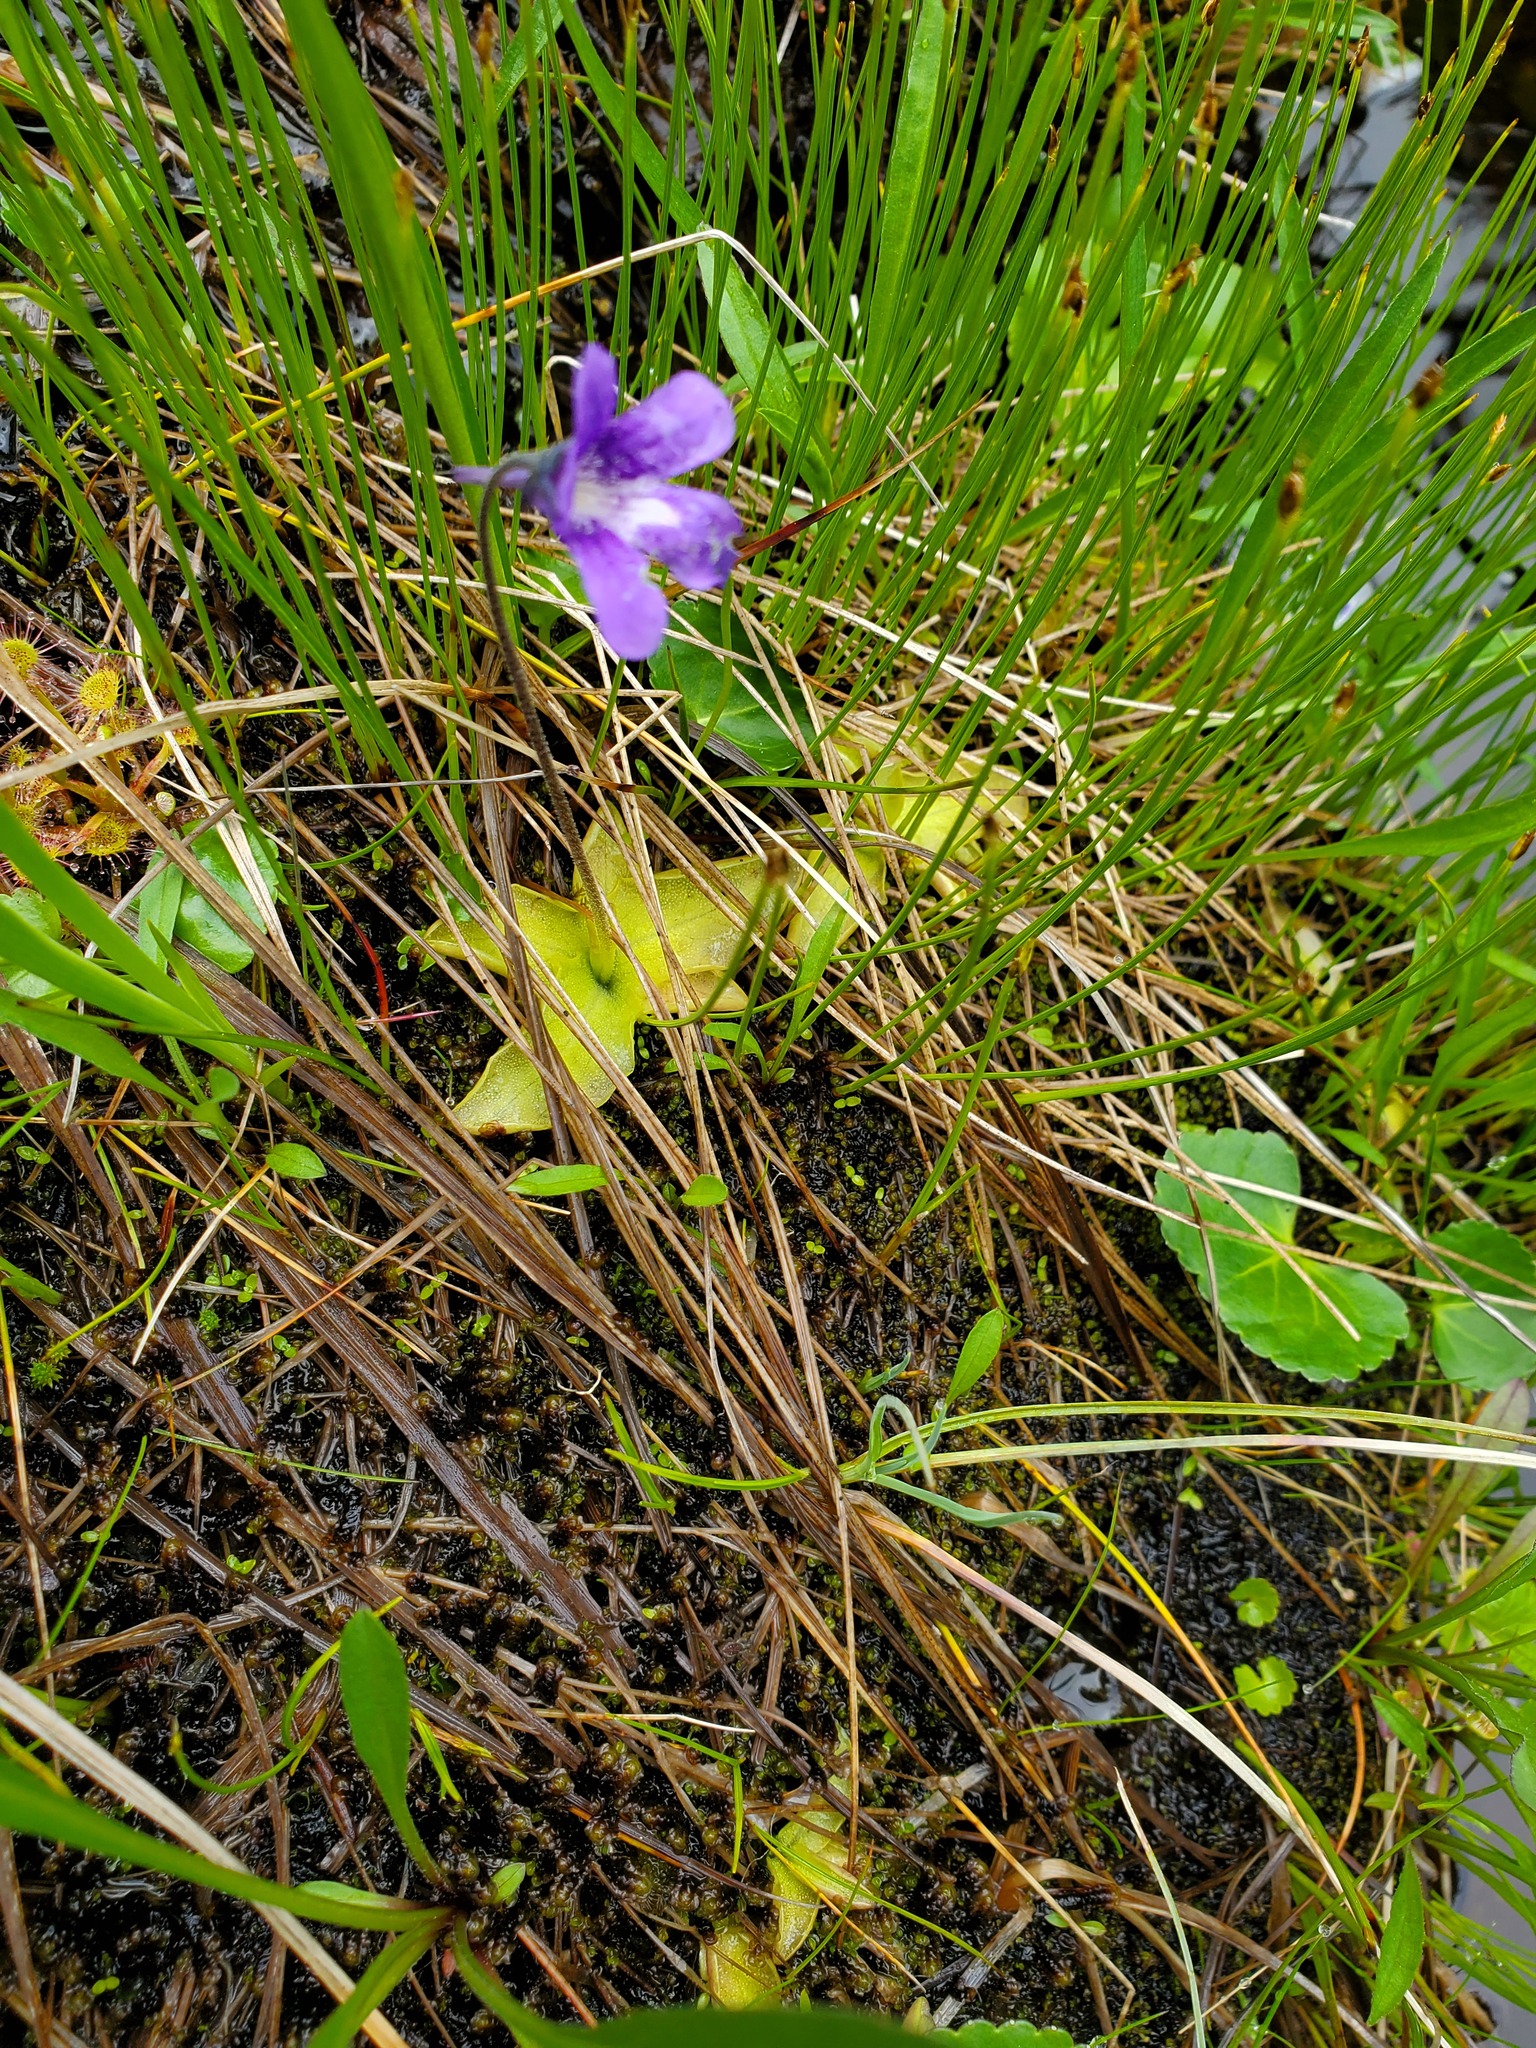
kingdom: Plantae
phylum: Tracheophyta
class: Magnoliopsida
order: Lamiales
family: Lentibulariaceae
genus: Pinguicula
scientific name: Pinguicula vulgaris
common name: Common butterwort
